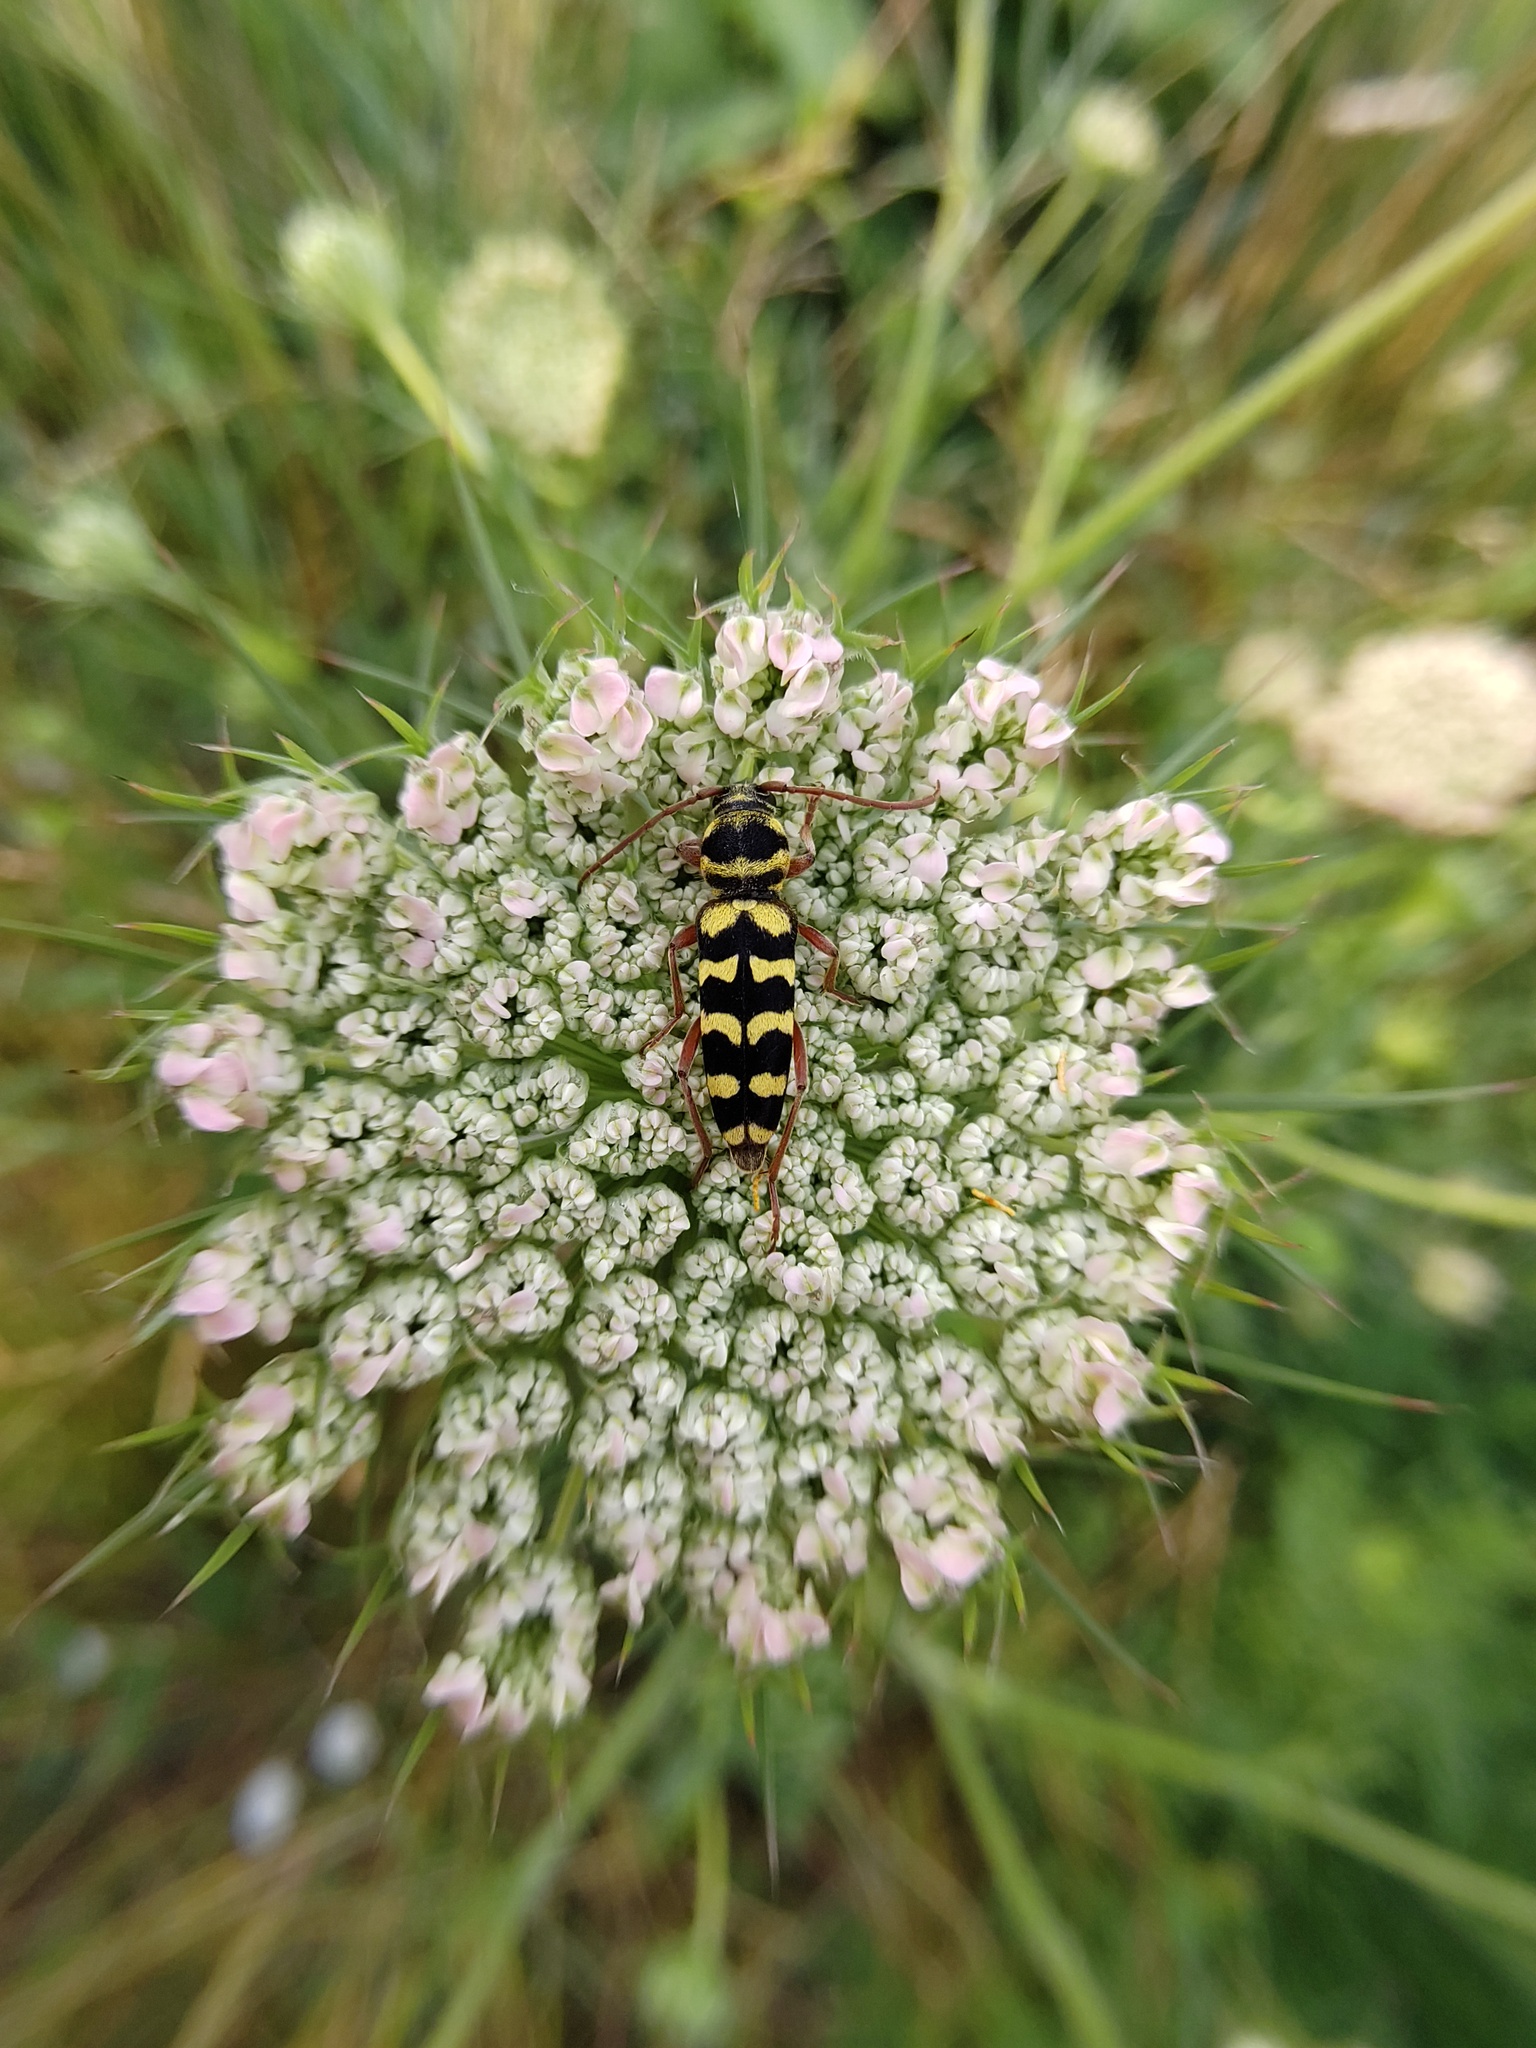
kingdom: Animalia
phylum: Arthropoda
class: Insecta
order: Coleoptera
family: Cerambycidae
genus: Plagionotus
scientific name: Plagionotus floralis
